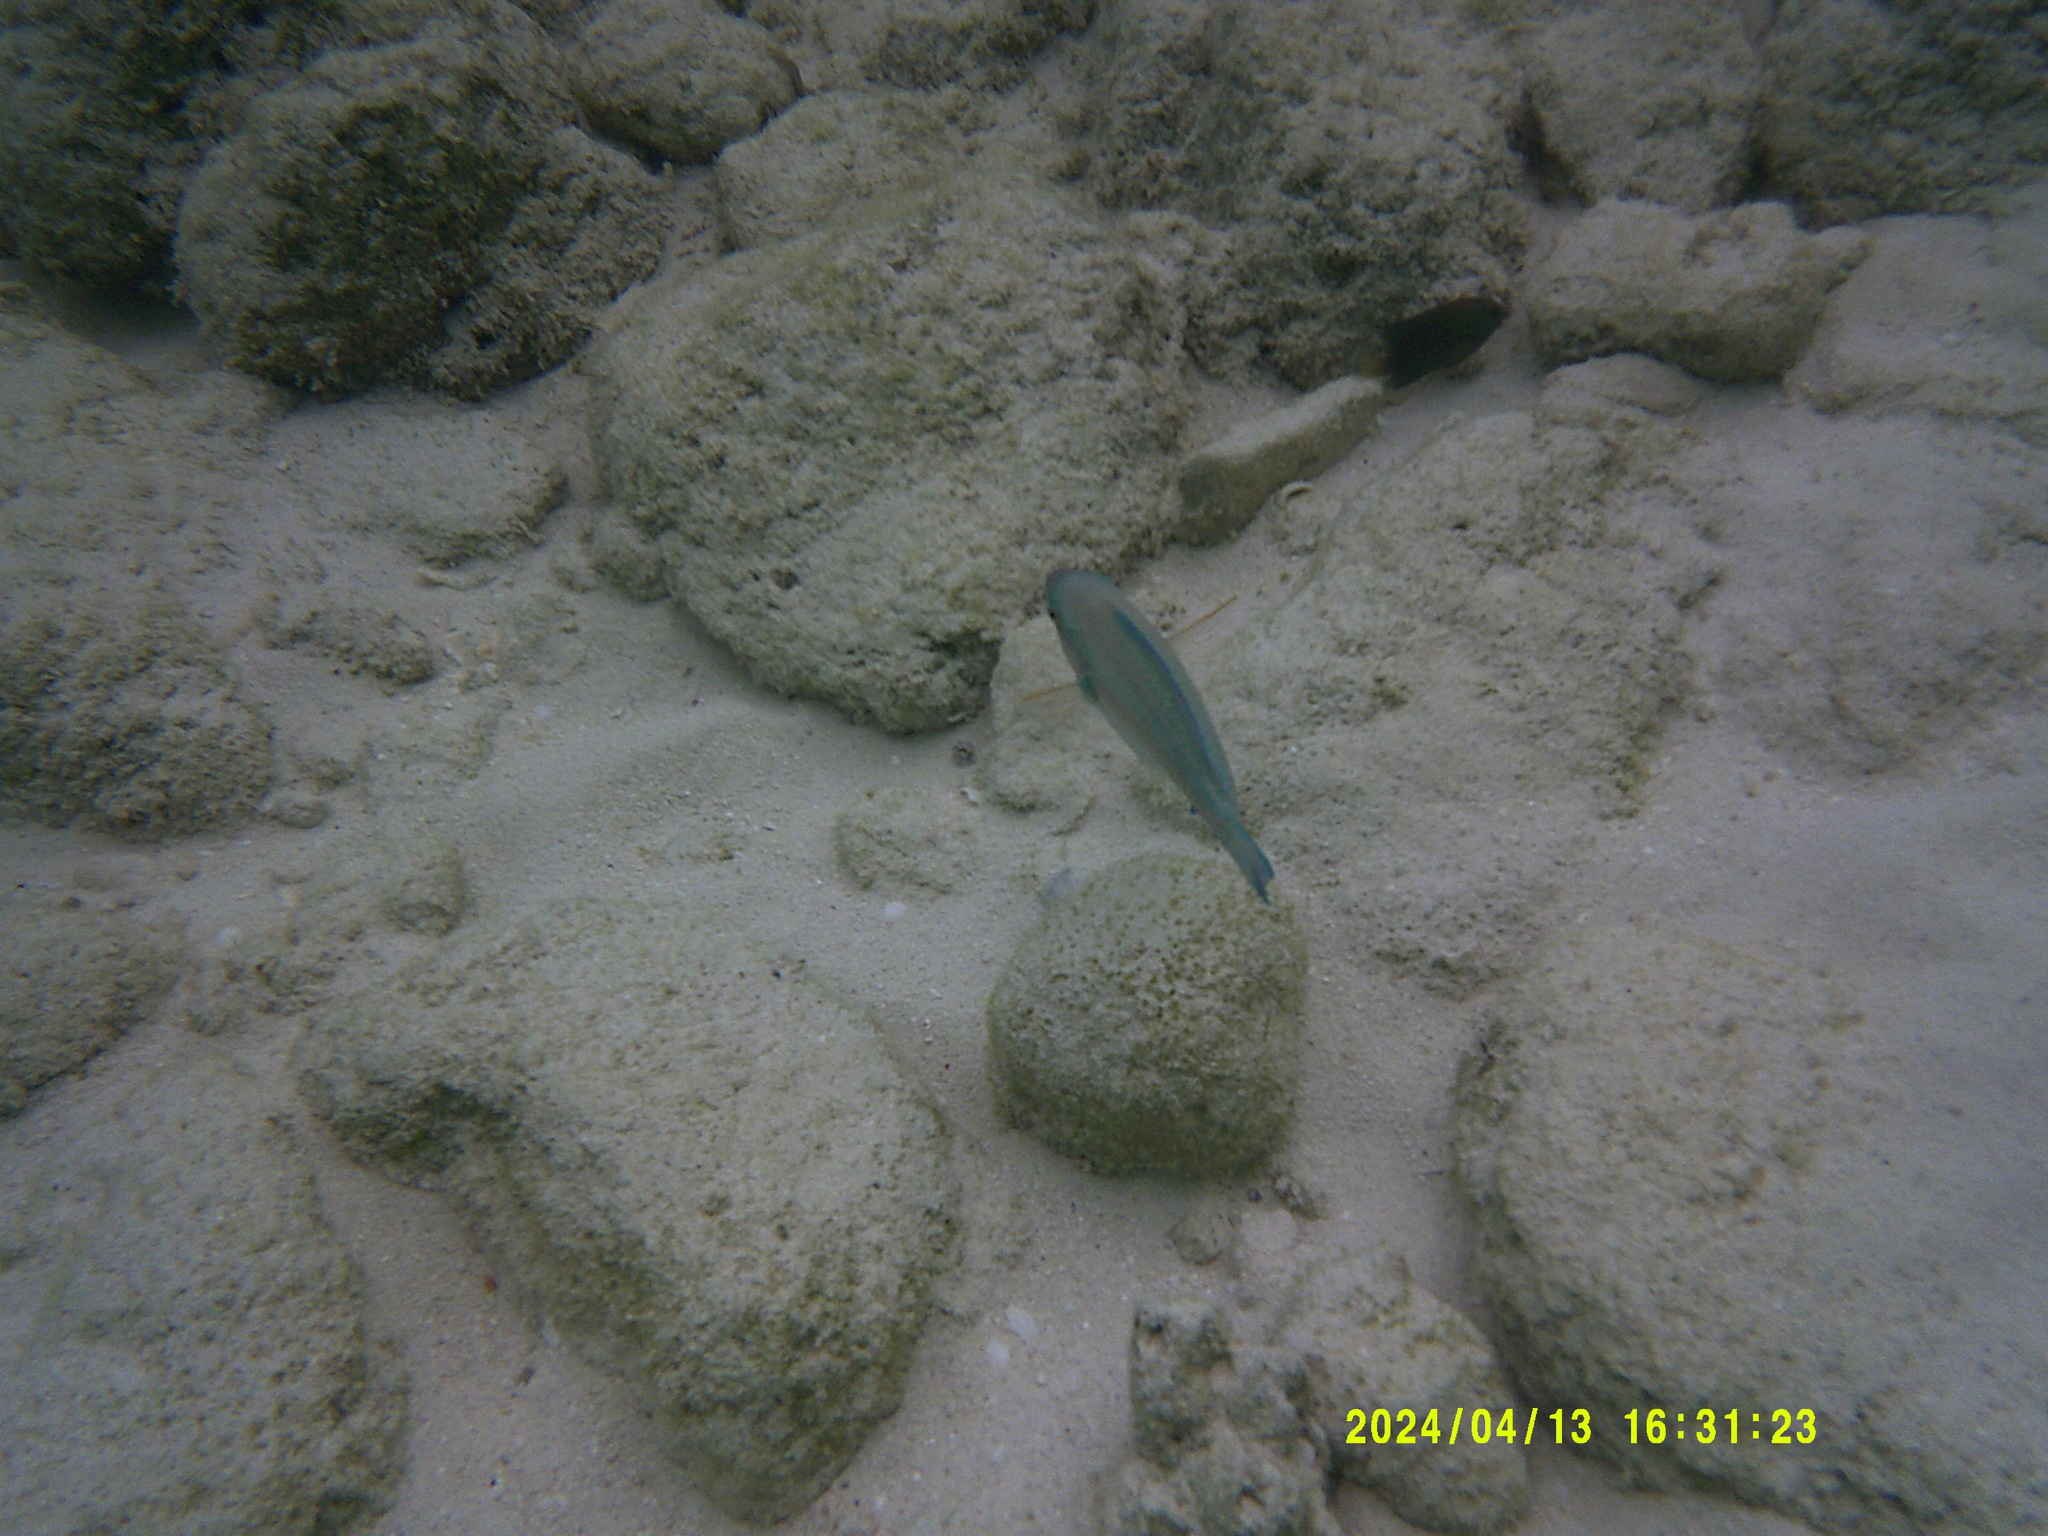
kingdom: Animalia
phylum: Chordata
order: Perciformes
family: Scaridae
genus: Scarus
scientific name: Scarus iseri
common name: Striped parrotfish
